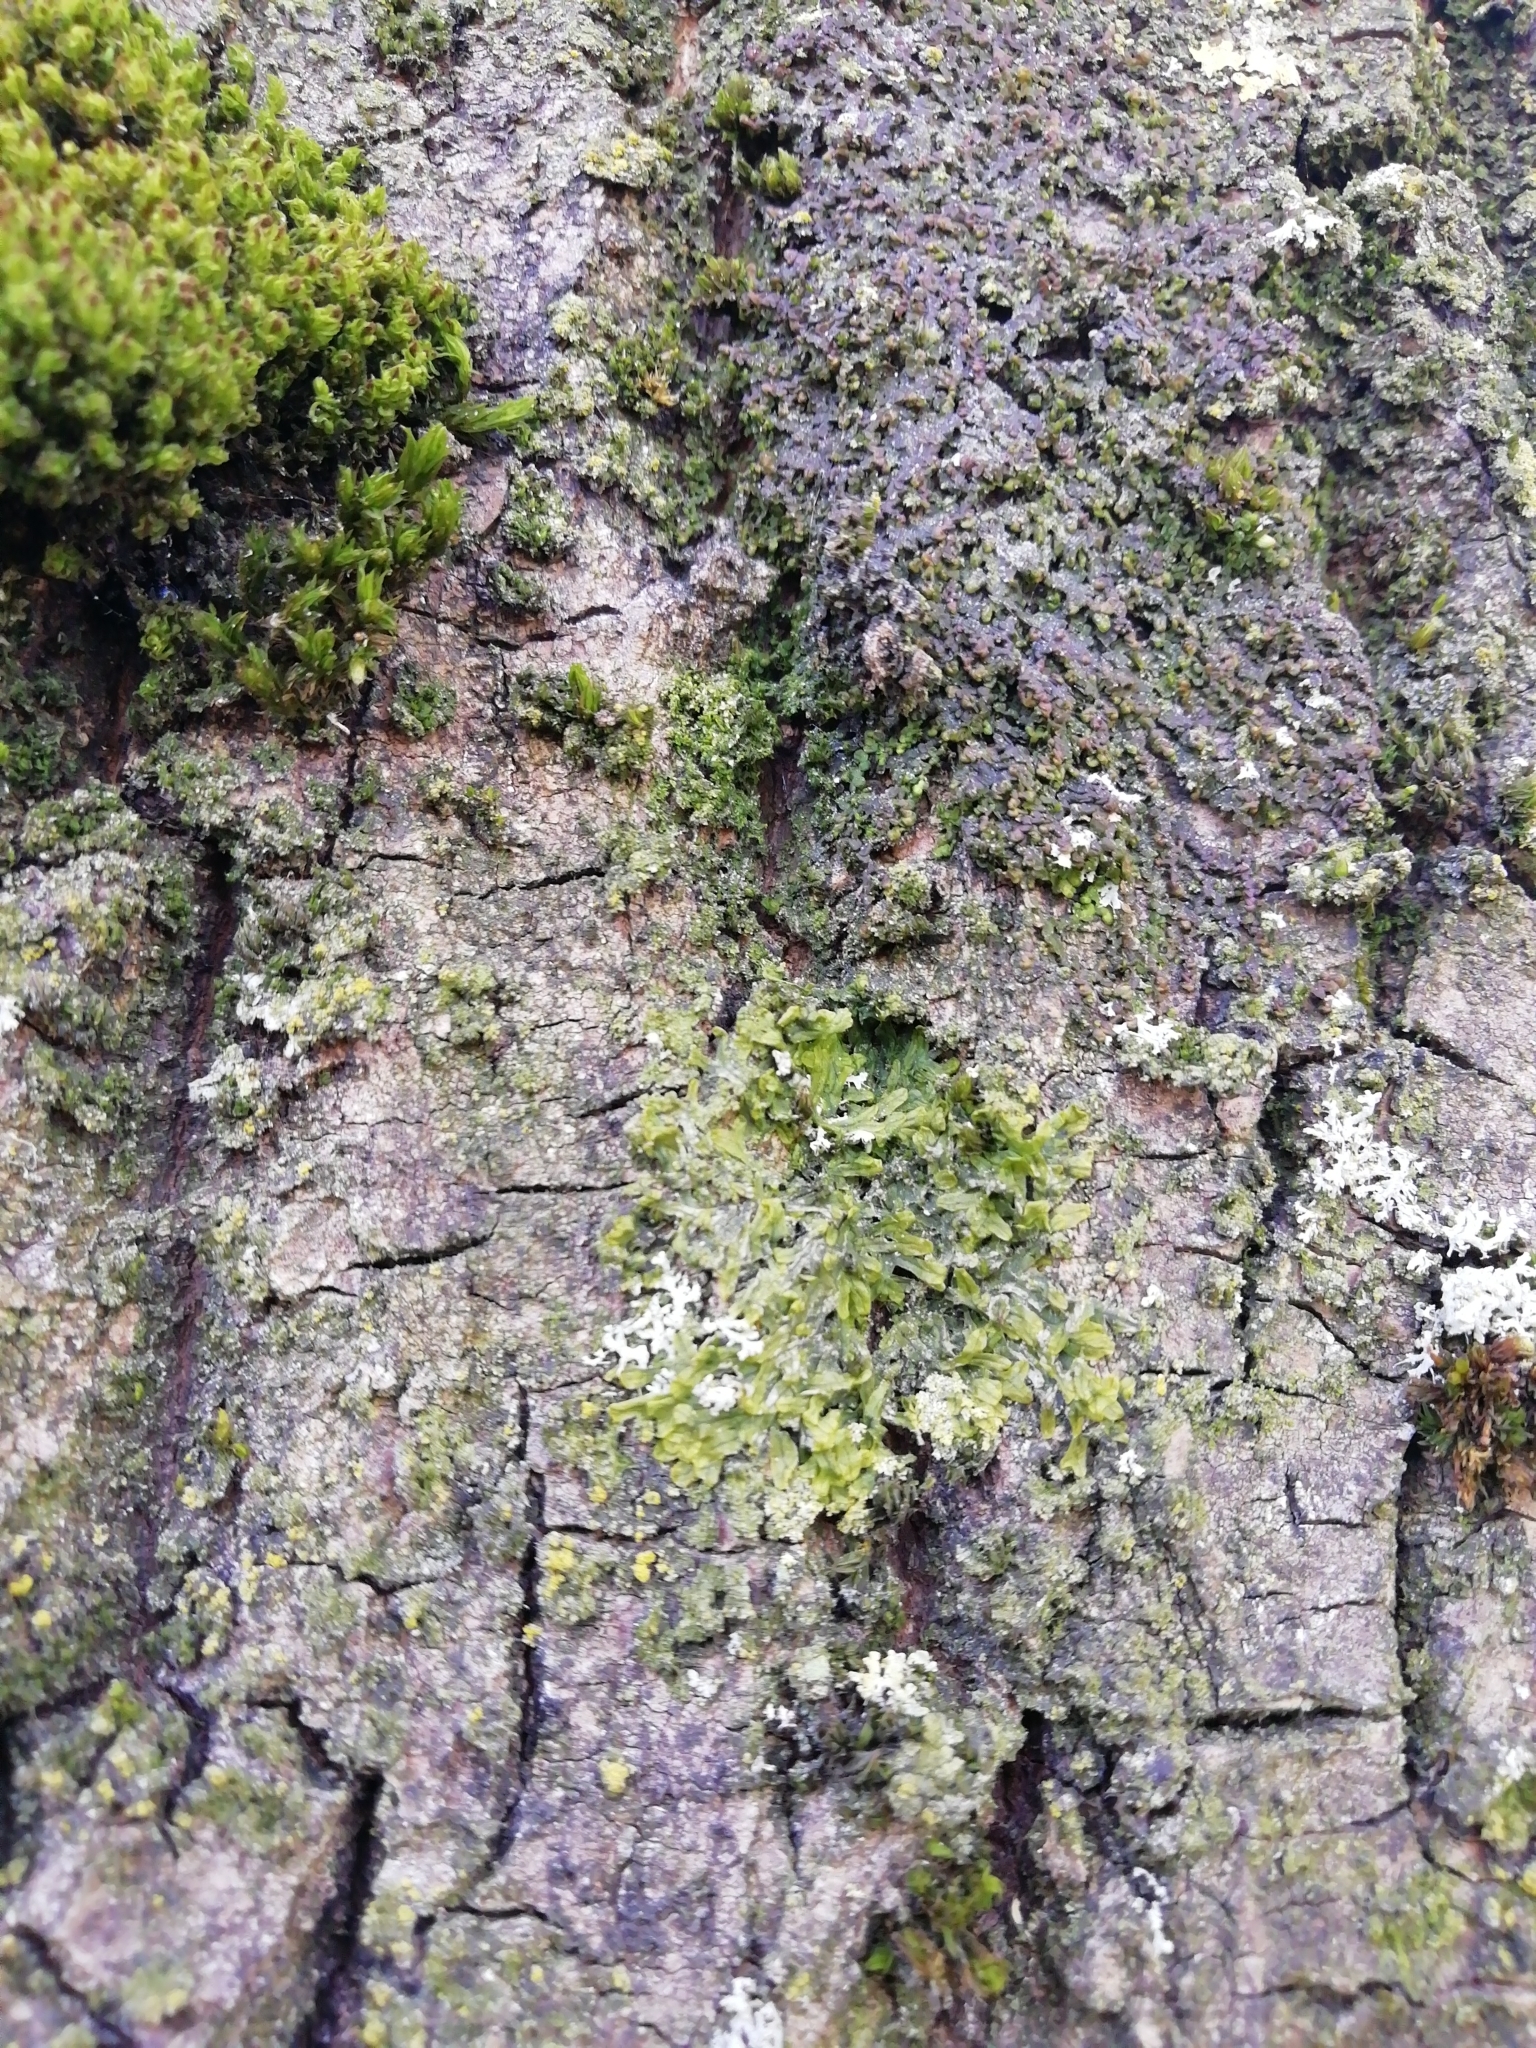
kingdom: Plantae
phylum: Marchantiophyta
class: Jungermanniopsida
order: Metzgeriales
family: Metzgeriaceae
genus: Metzgeria
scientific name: Metzgeria furcata
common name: Forked veilwort
